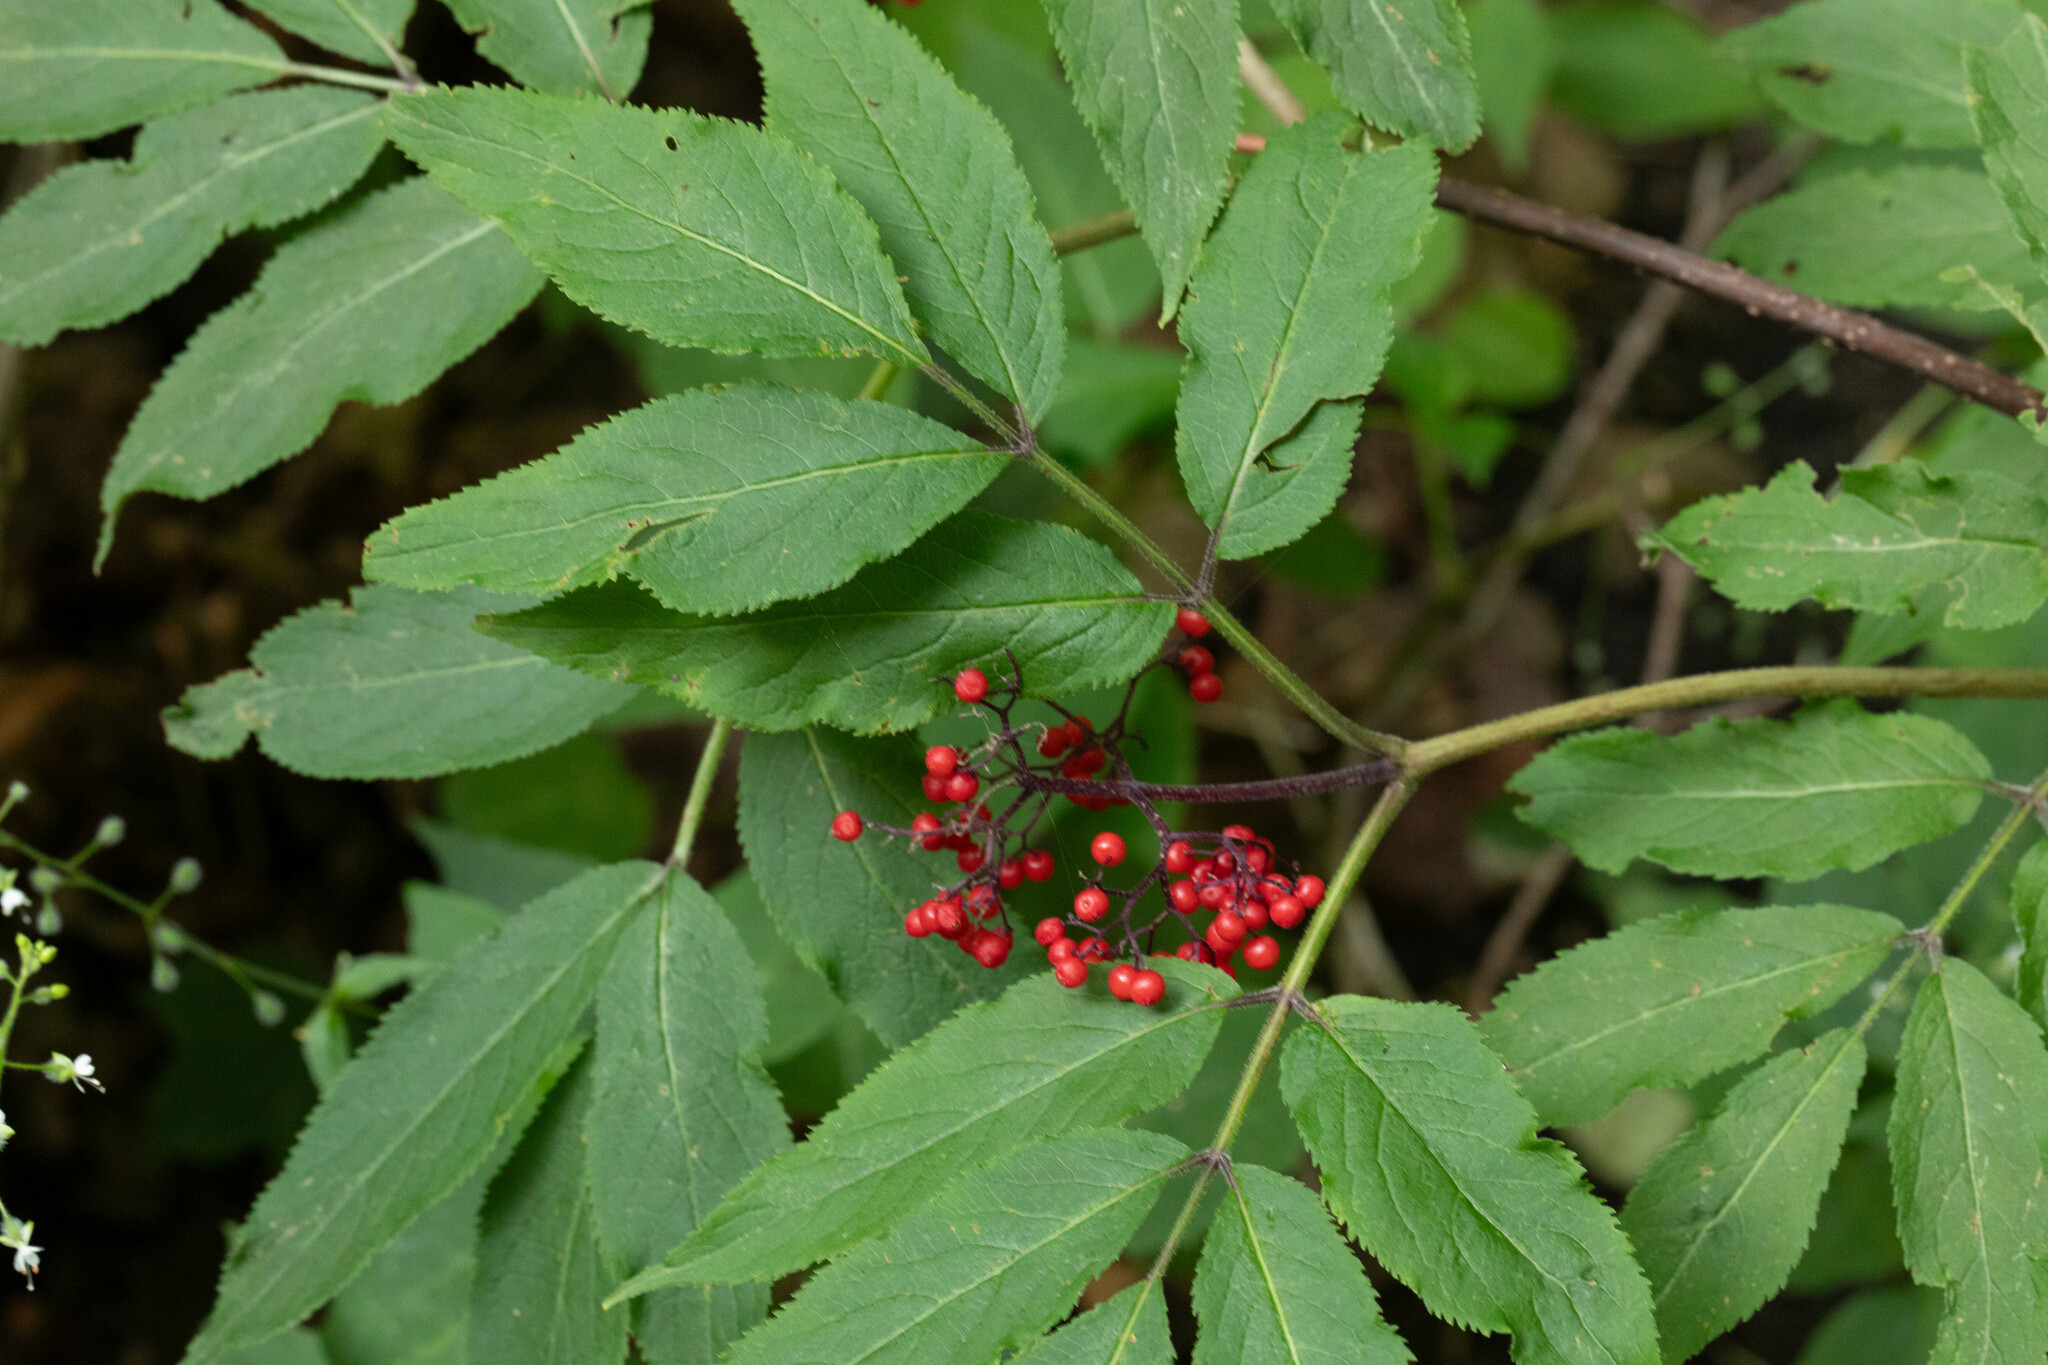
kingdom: Plantae
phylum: Tracheophyta
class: Magnoliopsida
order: Dipsacales
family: Viburnaceae
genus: Sambucus
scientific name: Sambucus racemosa
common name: Red-berried elder
